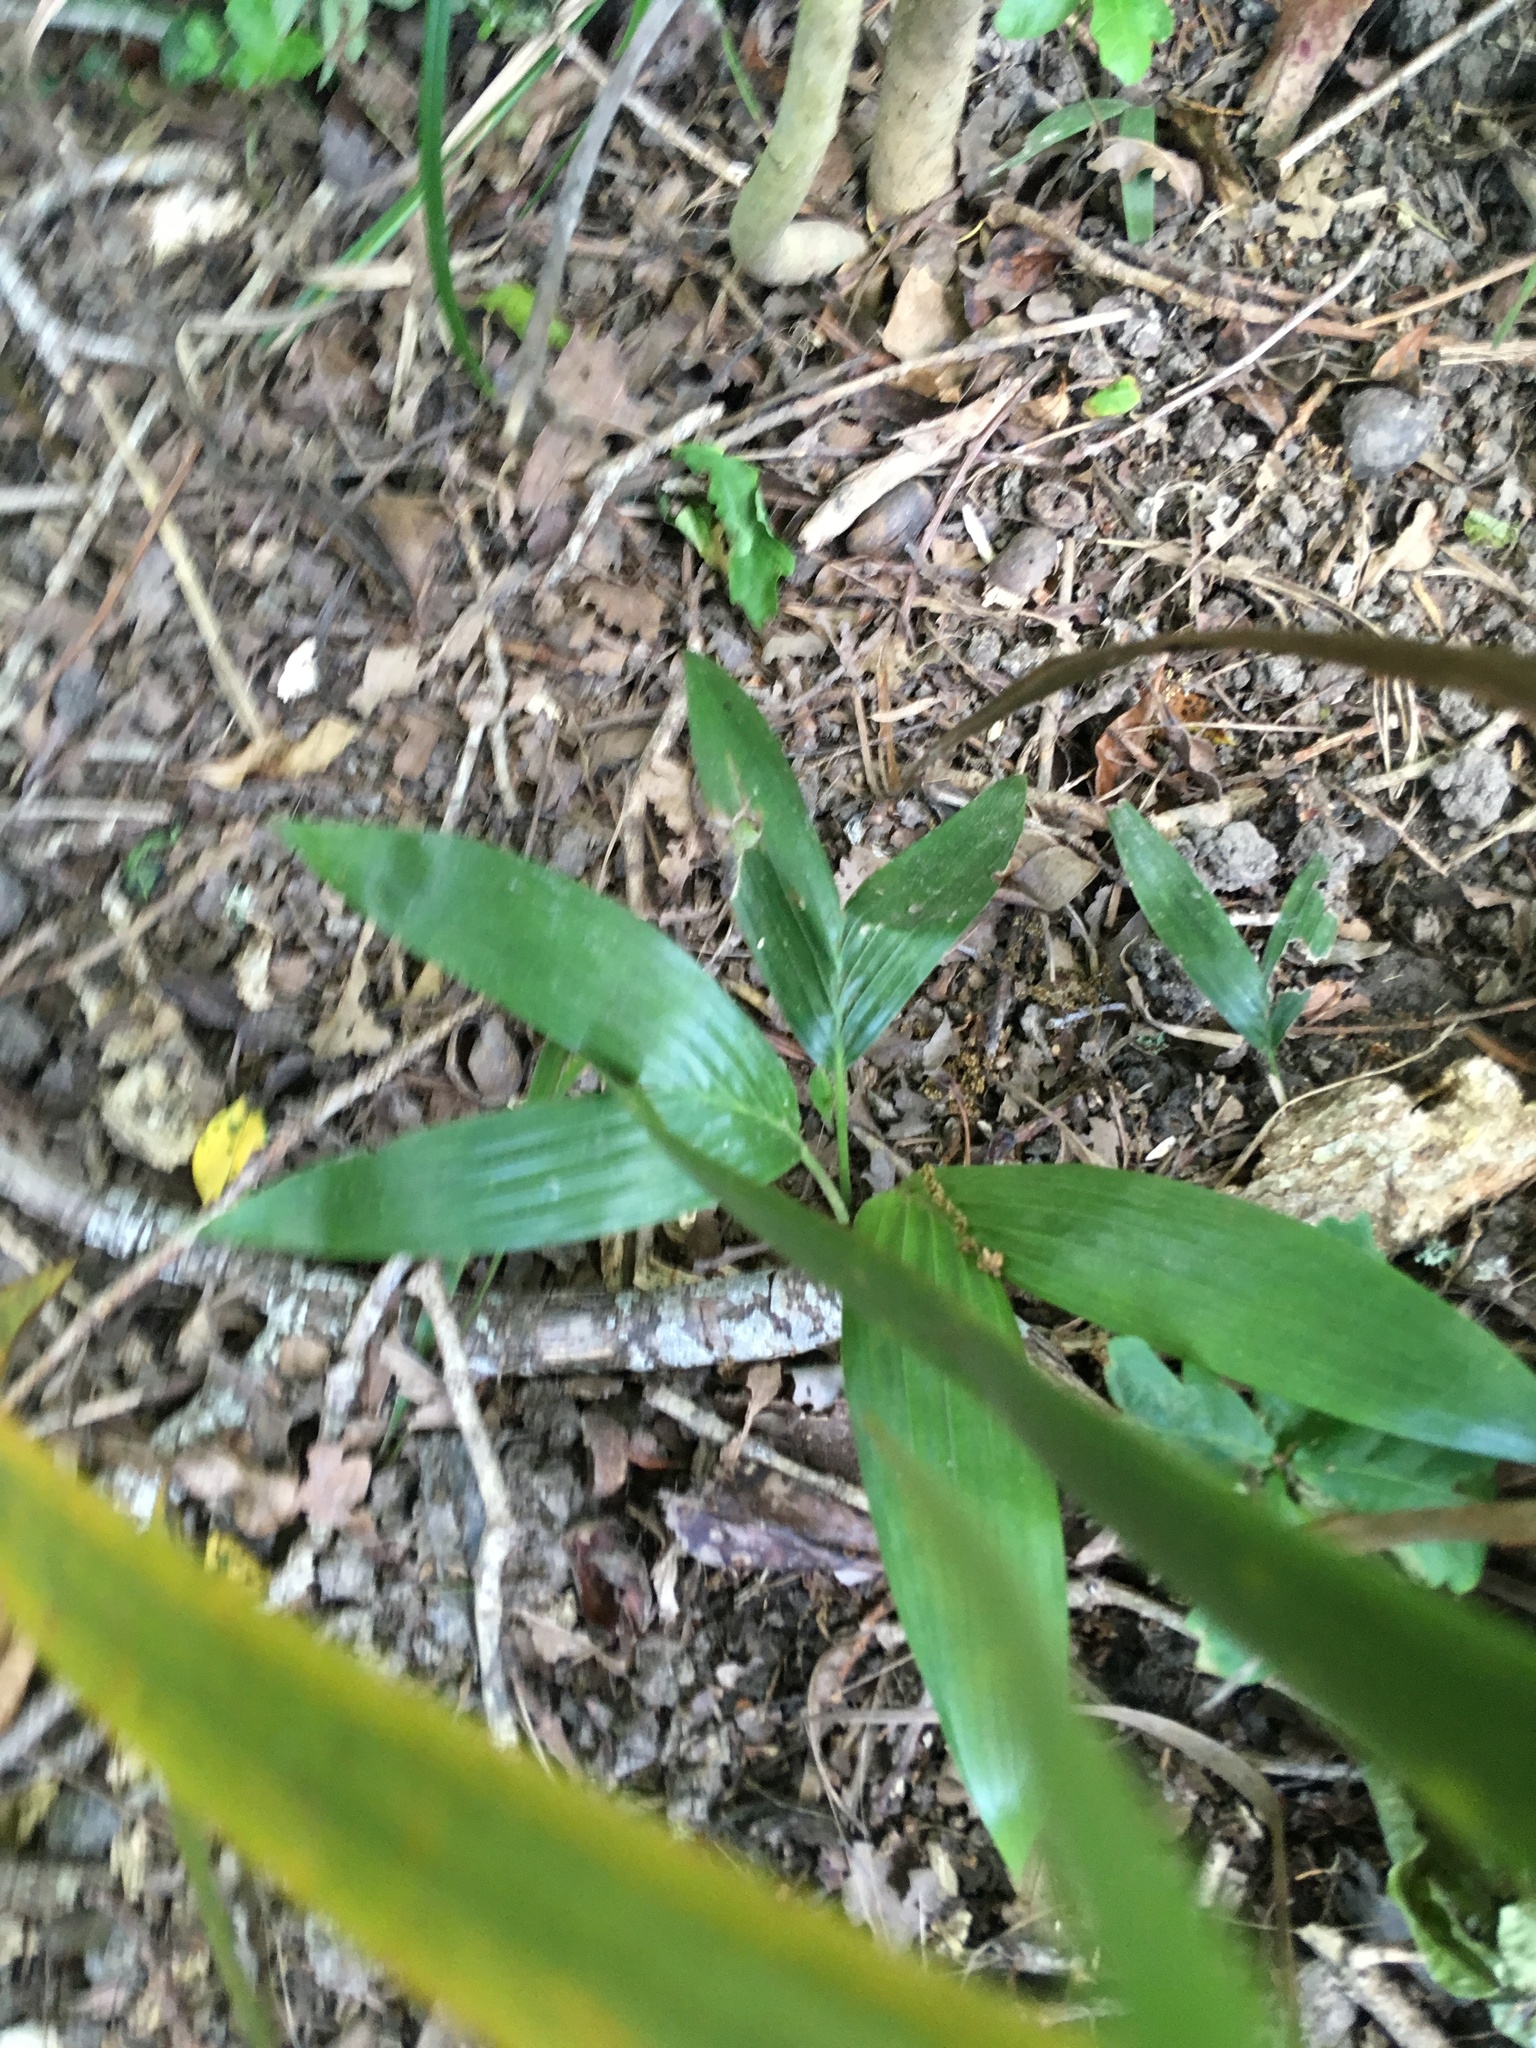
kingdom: Plantae
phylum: Tracheophyta
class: Liliopsida
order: Arecales
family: Arecaceae
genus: Archontophoenix
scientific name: Archontophoenix cunninghamiana
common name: Piccabeen bangalow palm
